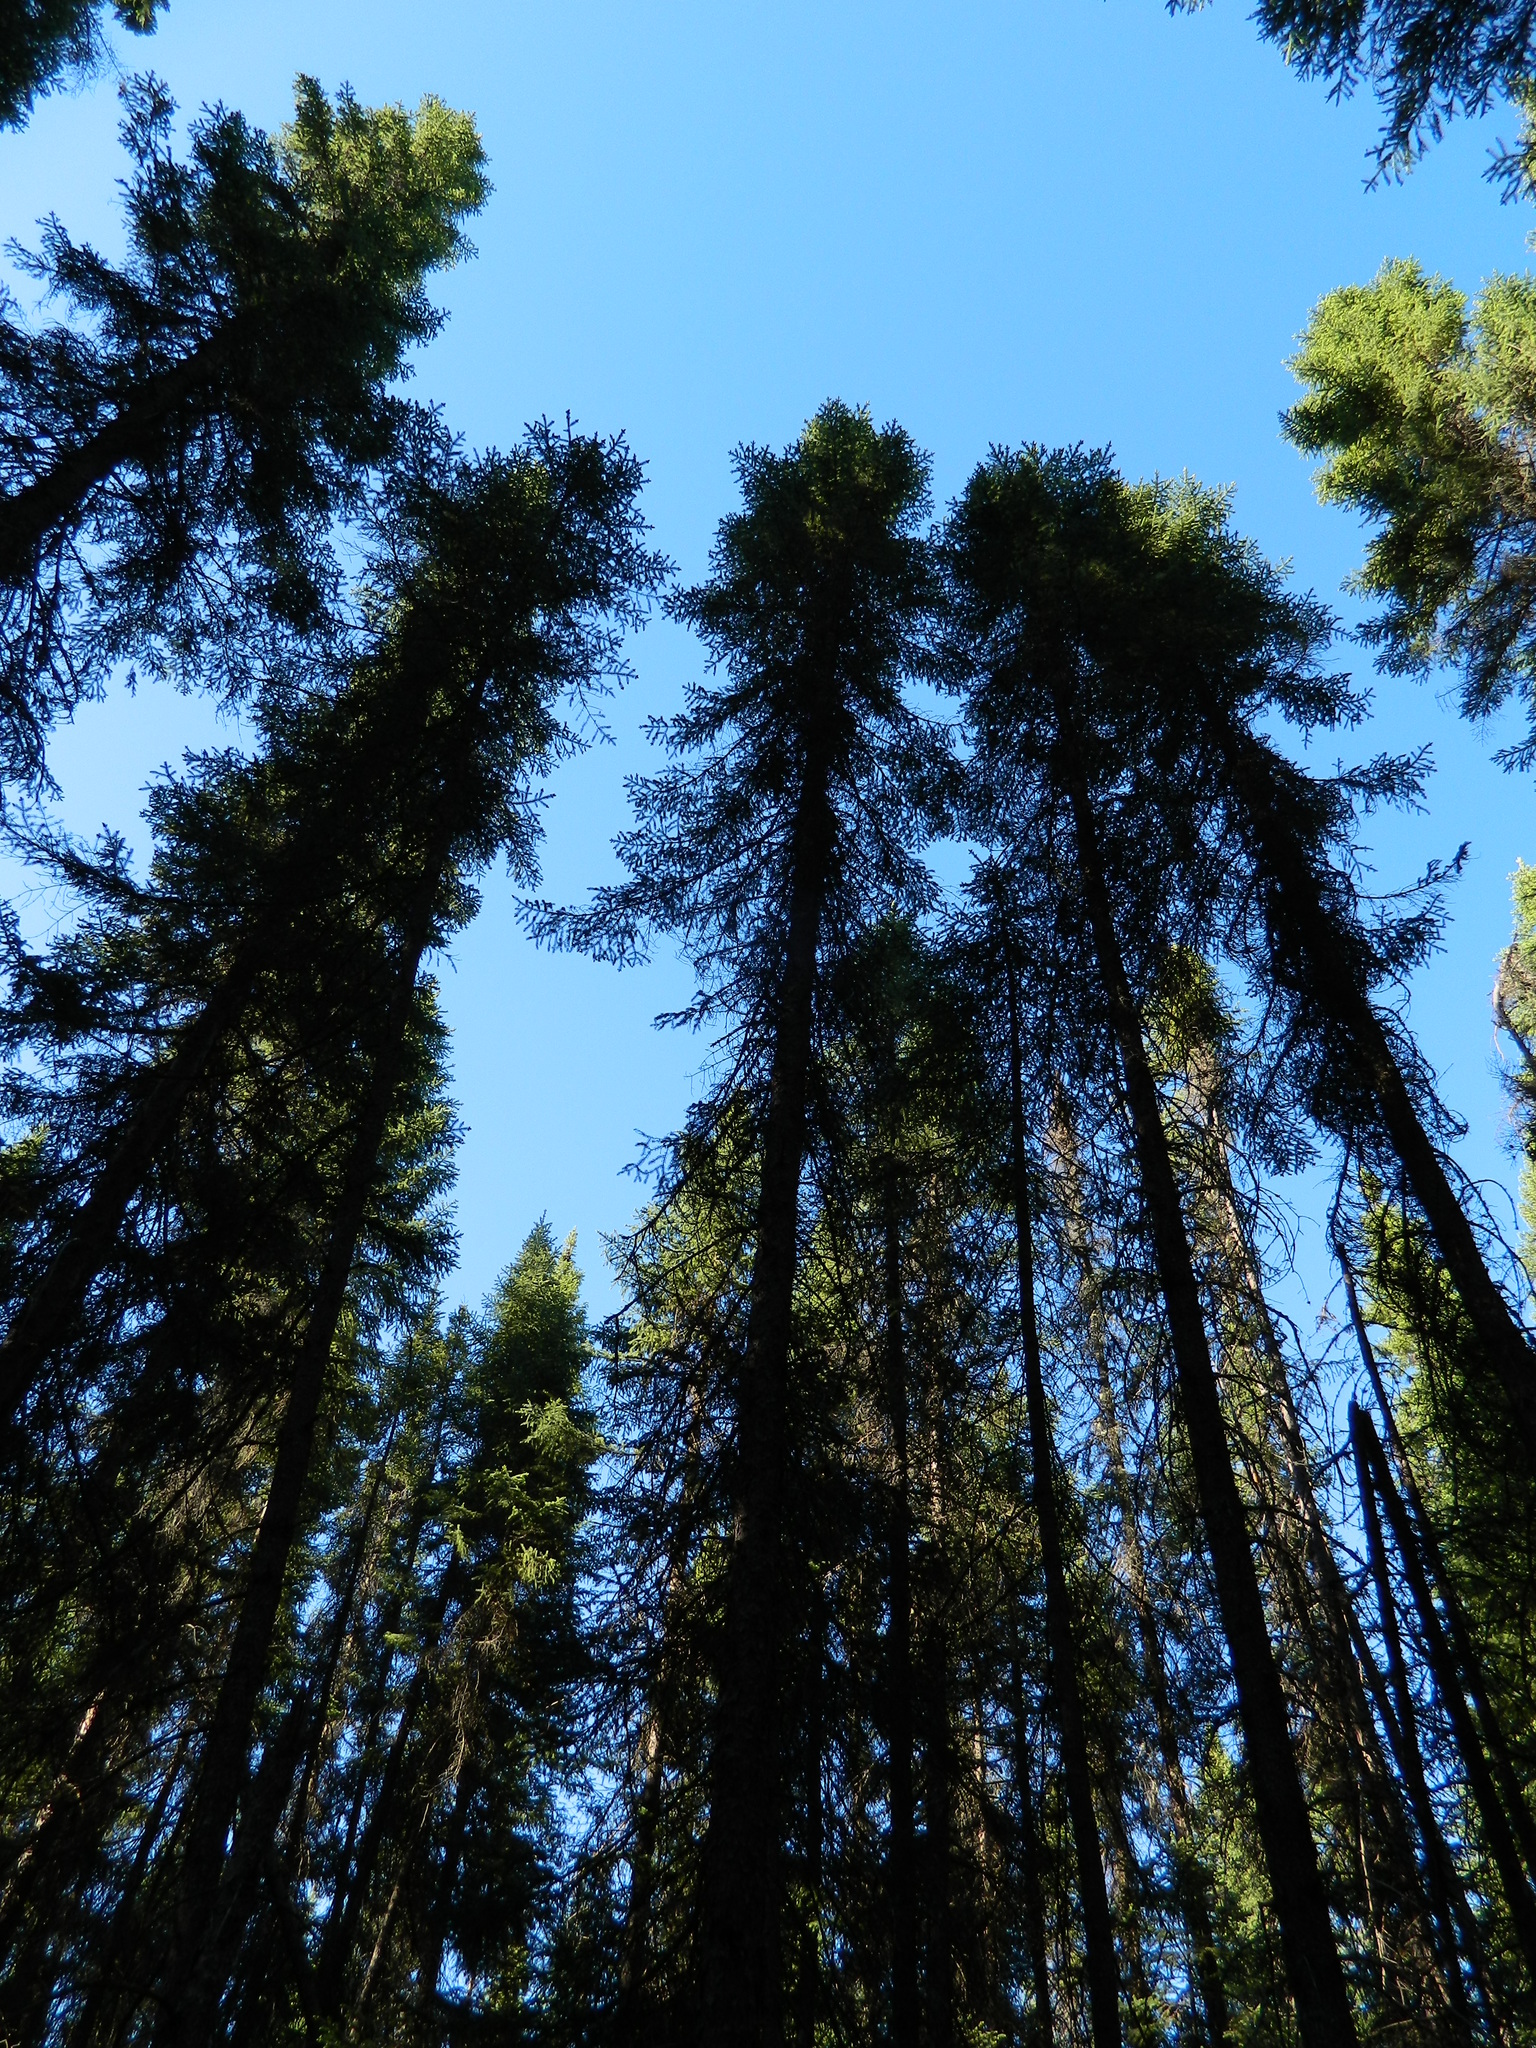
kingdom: Plantae
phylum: Tracheophyta
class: Pinopsida
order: Pinales
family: Pinaceae
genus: Picea
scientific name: Picea mariana
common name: Black spruce
